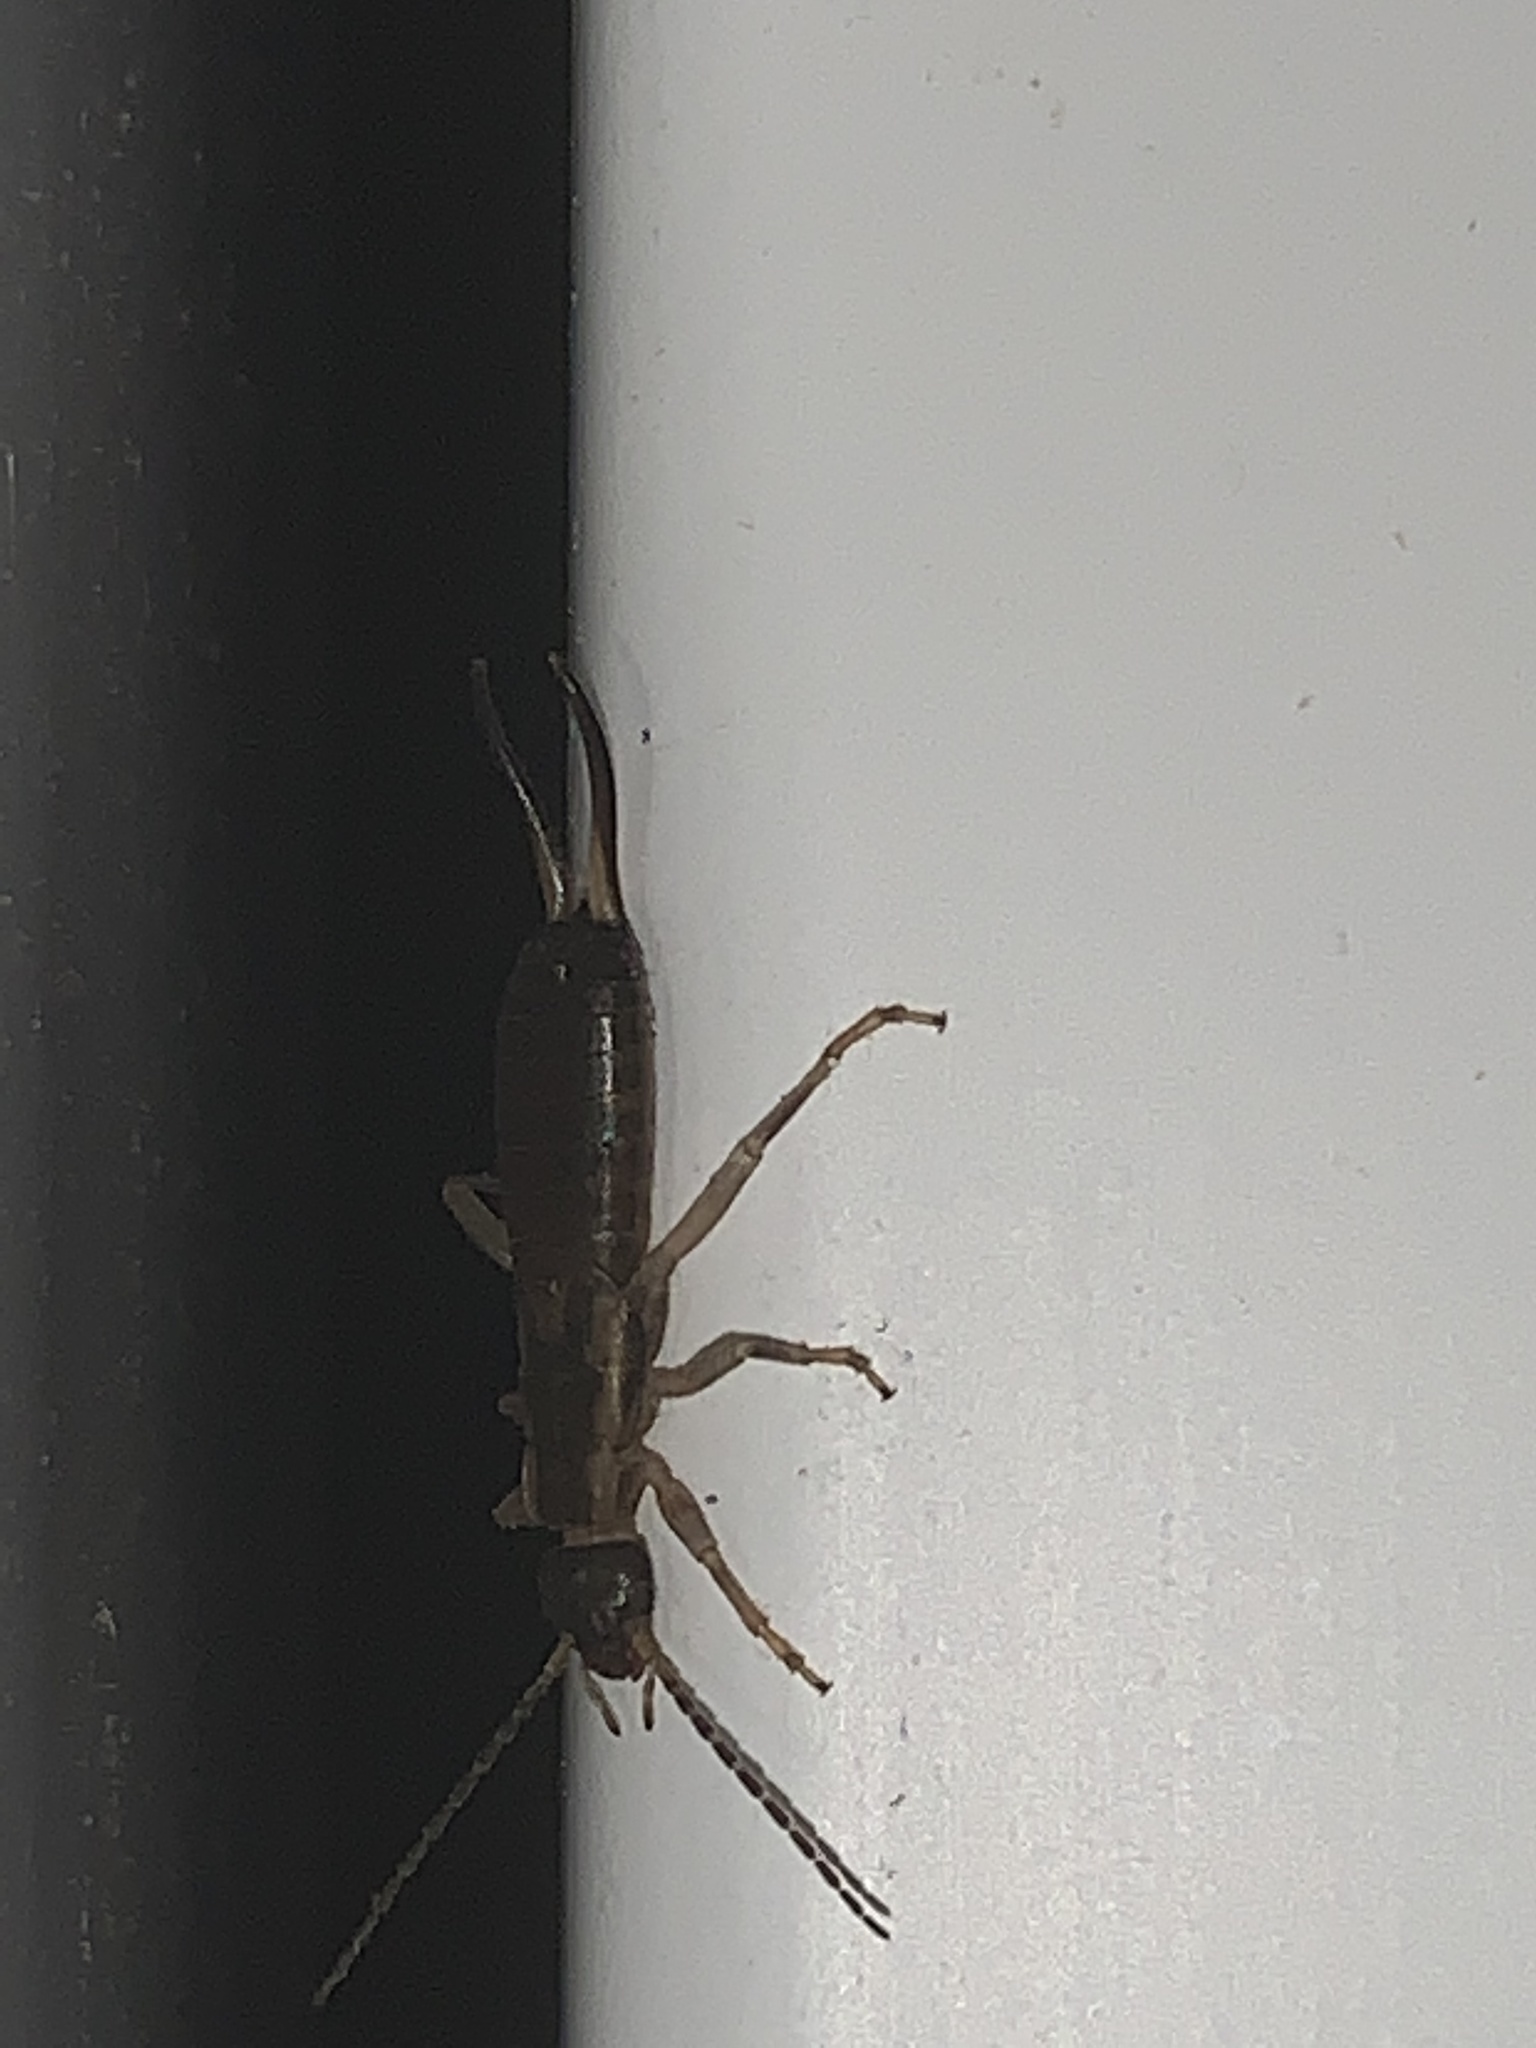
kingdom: Animalia
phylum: Arthropoda
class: Insecta
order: Dermaptera
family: Forficulidae
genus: Forficula
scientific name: Forficula
